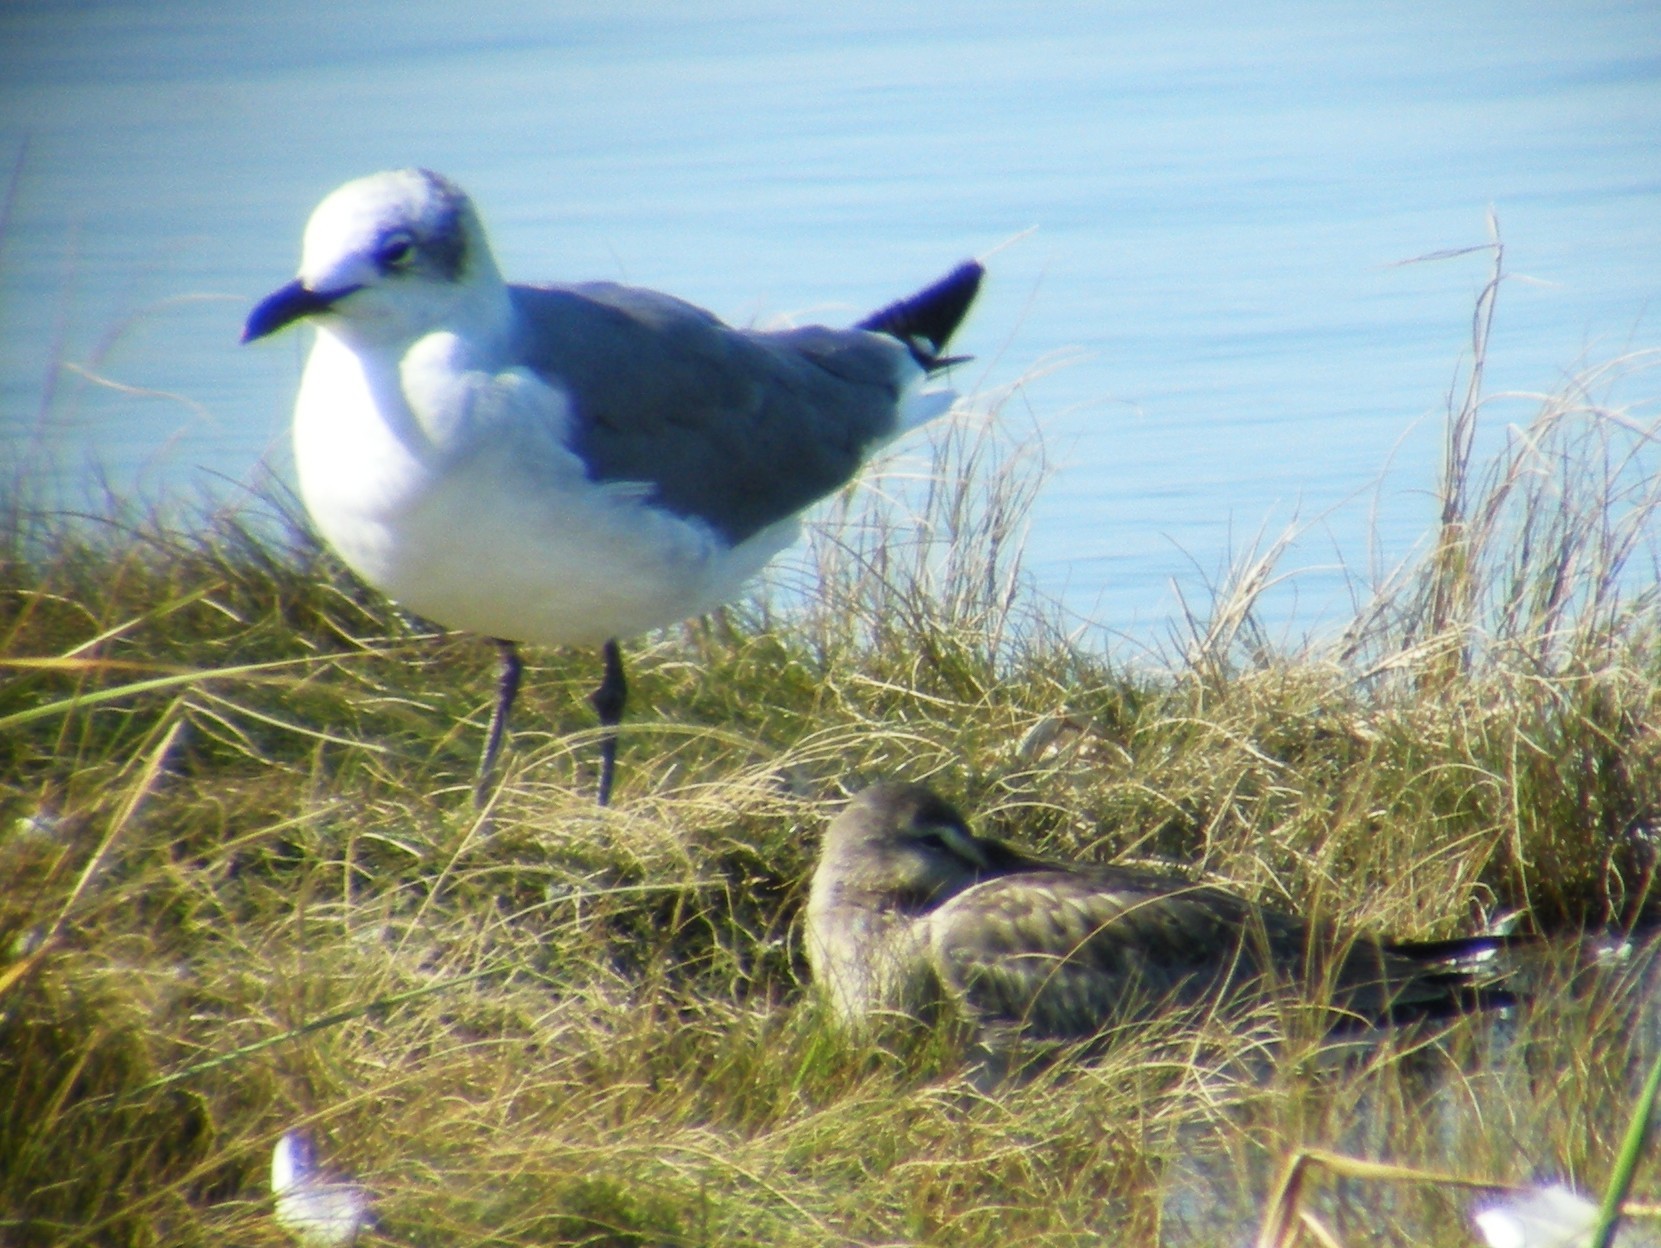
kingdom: Animalia
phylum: Chordata
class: Aves
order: Charadriiformes
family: Laridae
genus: Leucophaeus
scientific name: Leucophaeus atricilla
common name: Laughing gull
